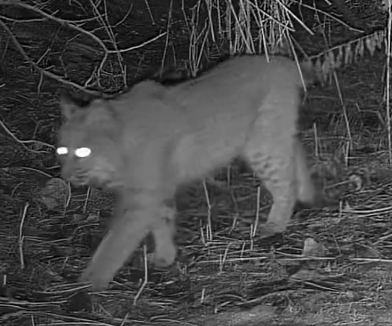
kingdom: Animalia
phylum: Chordata
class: Mammalia
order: Carnivora
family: Felidae
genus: Lynx
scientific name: Lynx rufus
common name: Bobcat
